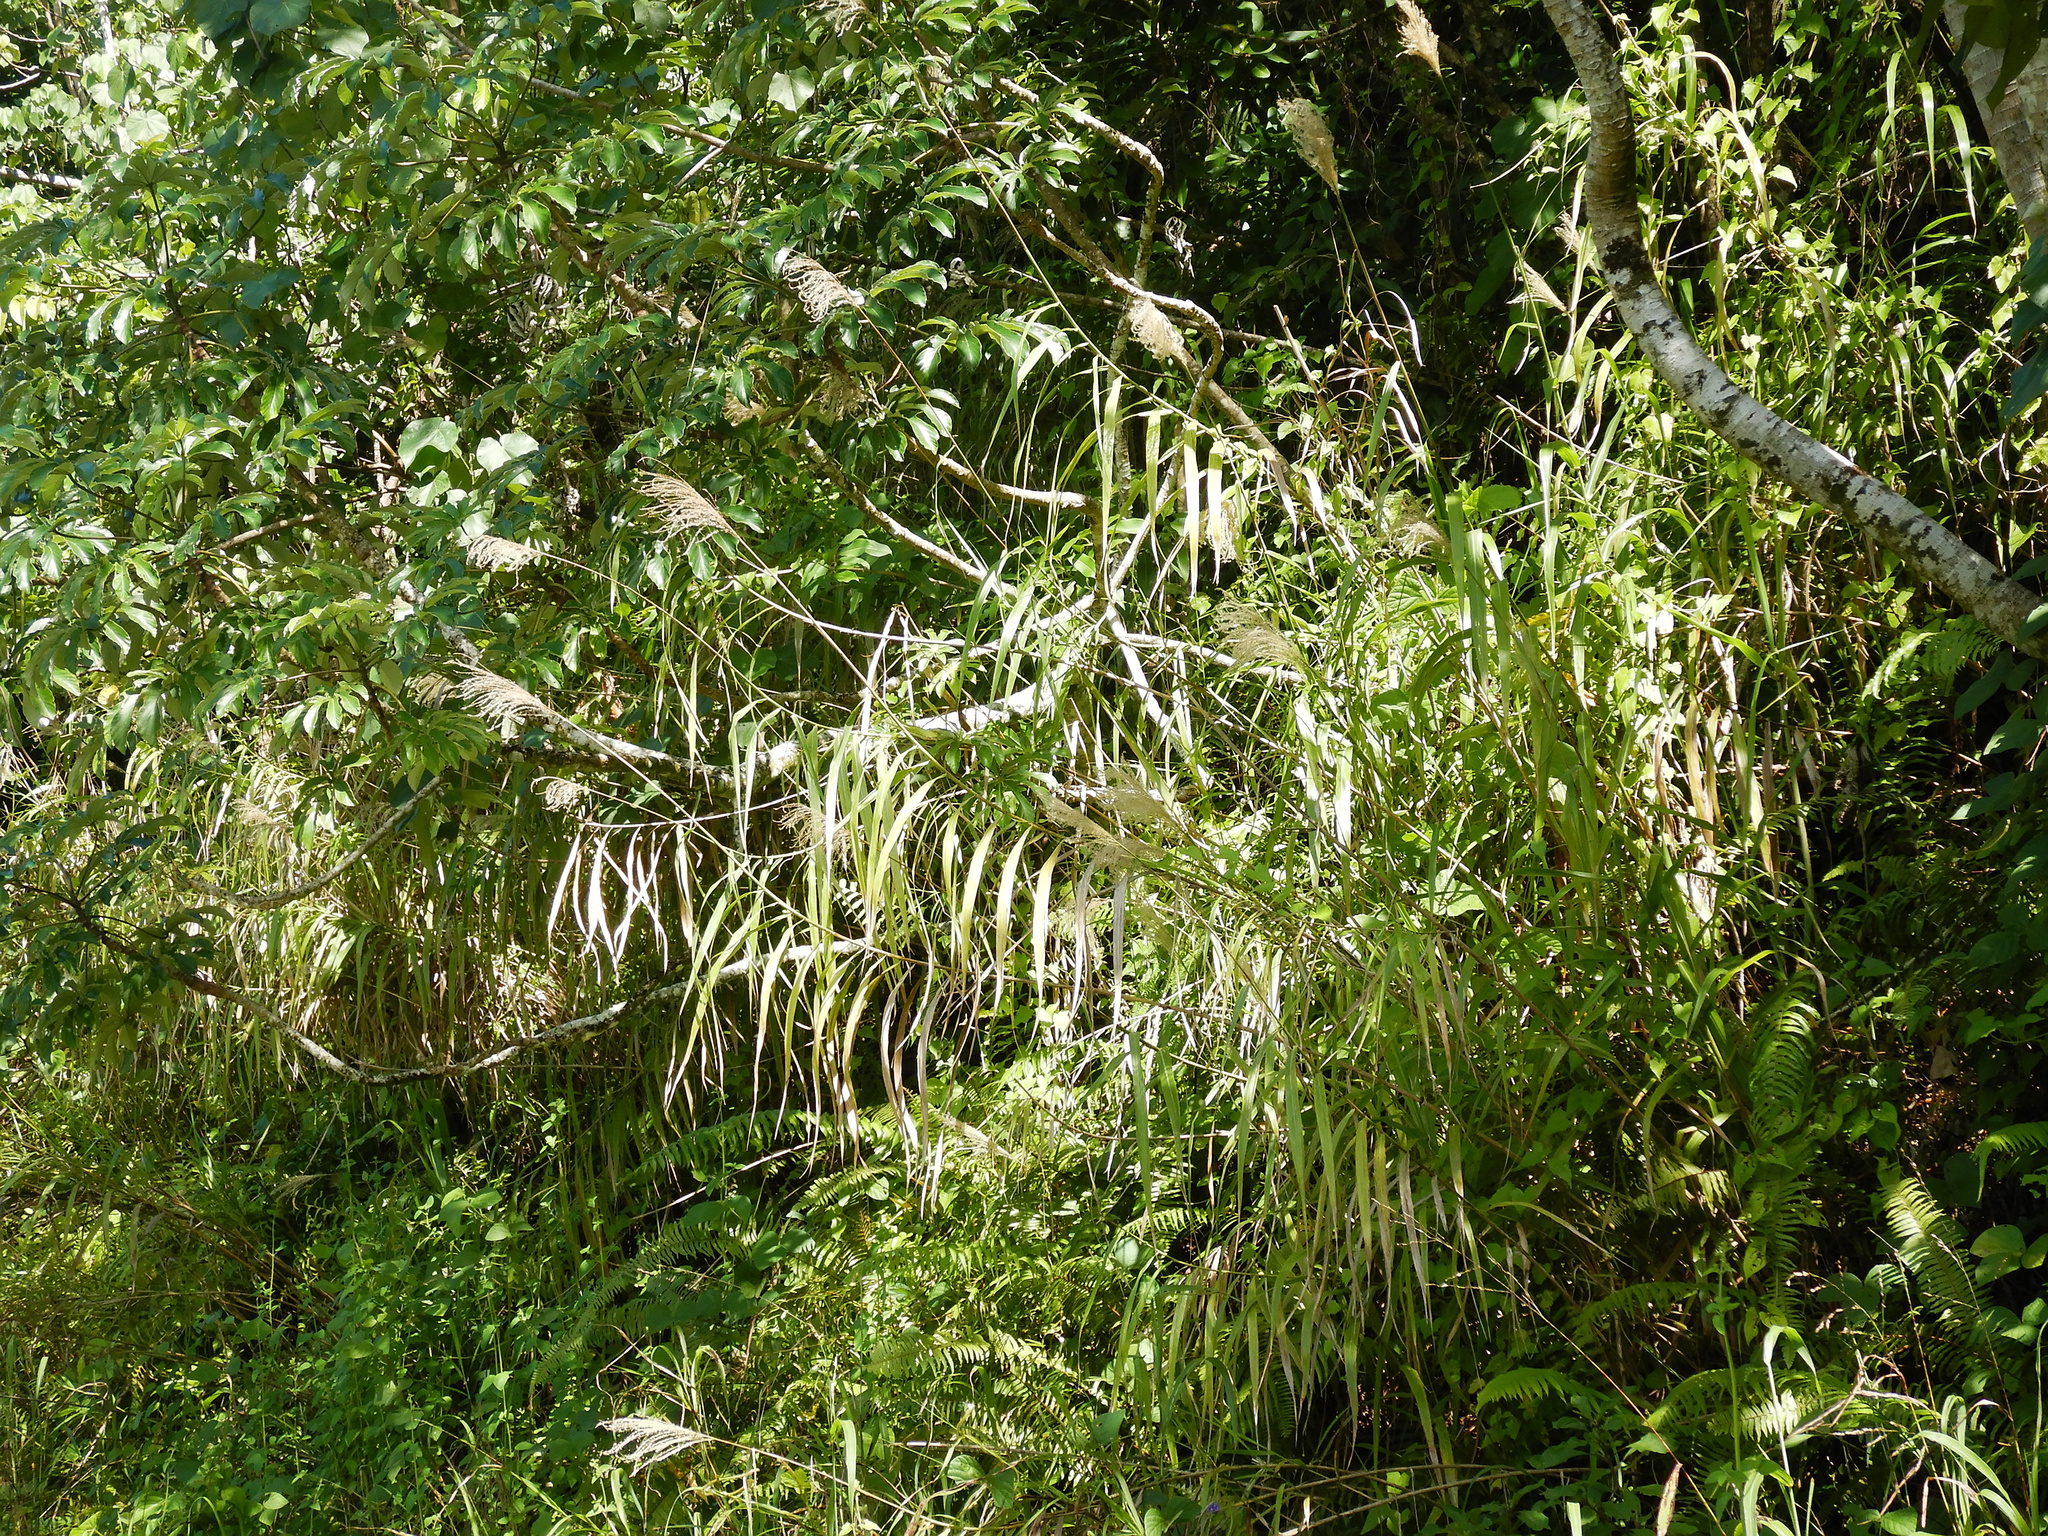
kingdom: Plantae
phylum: Tracheophyta
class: Liliopsida
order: Poales
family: Poaceae
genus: Miscanthus
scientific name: Miscanthus floridulus
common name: Pacific island silvergrass
